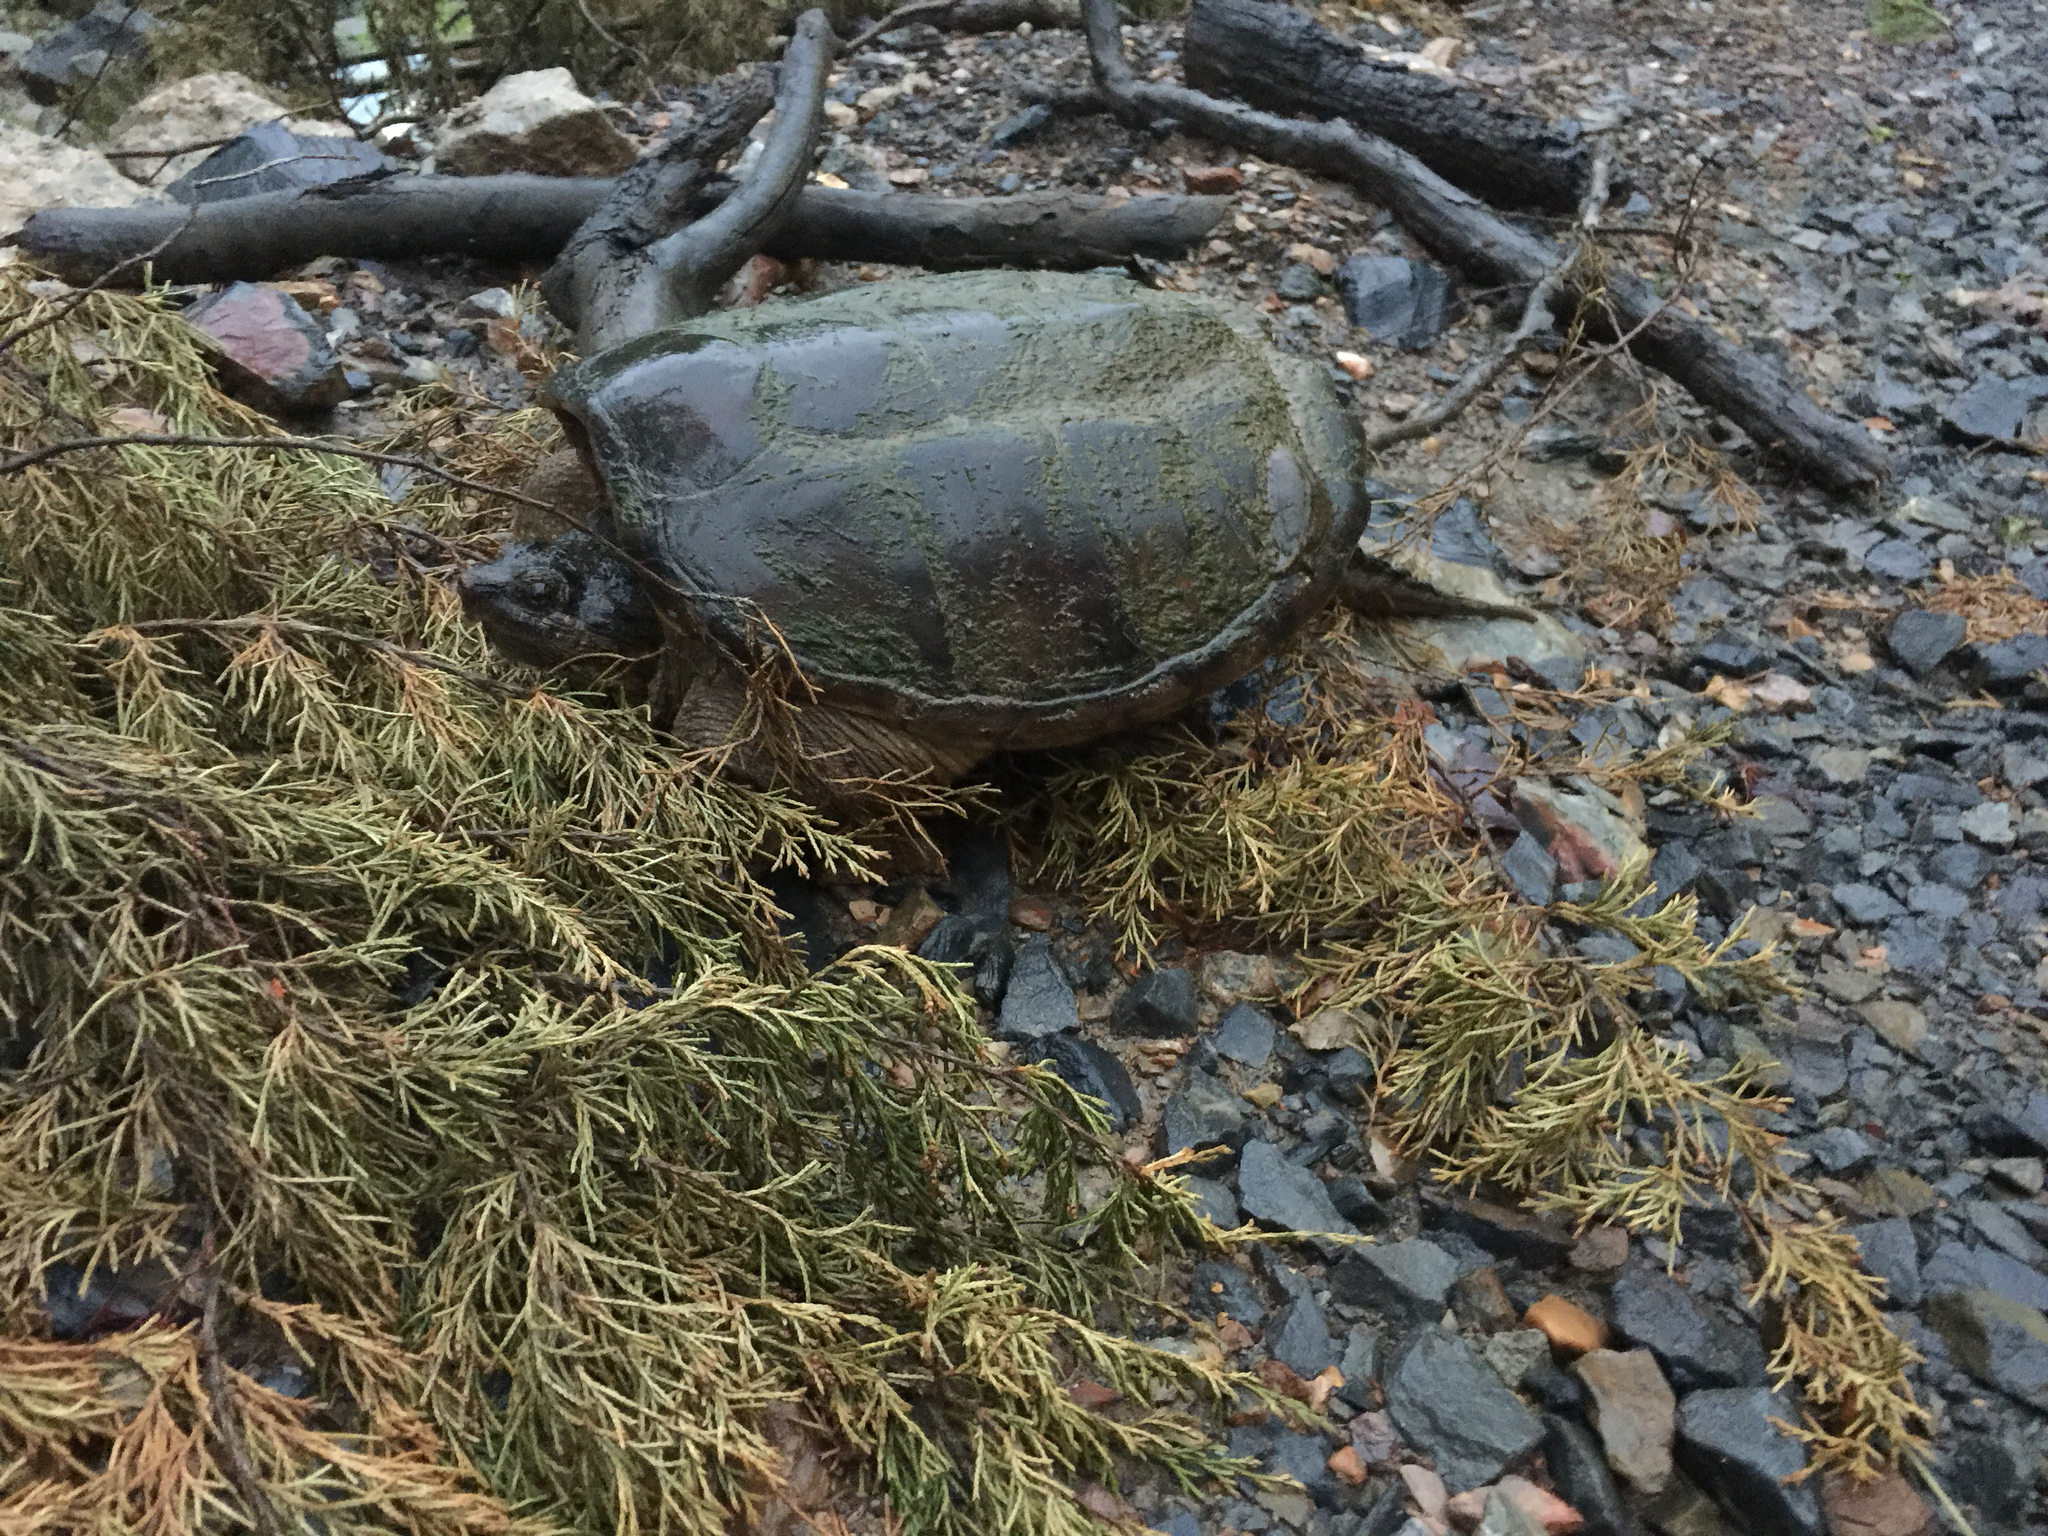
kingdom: Animalia
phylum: Chordata
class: Testudines
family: Chelydridae
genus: Chelydra
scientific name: Chelydra serpentina
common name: Common snapping turtle
